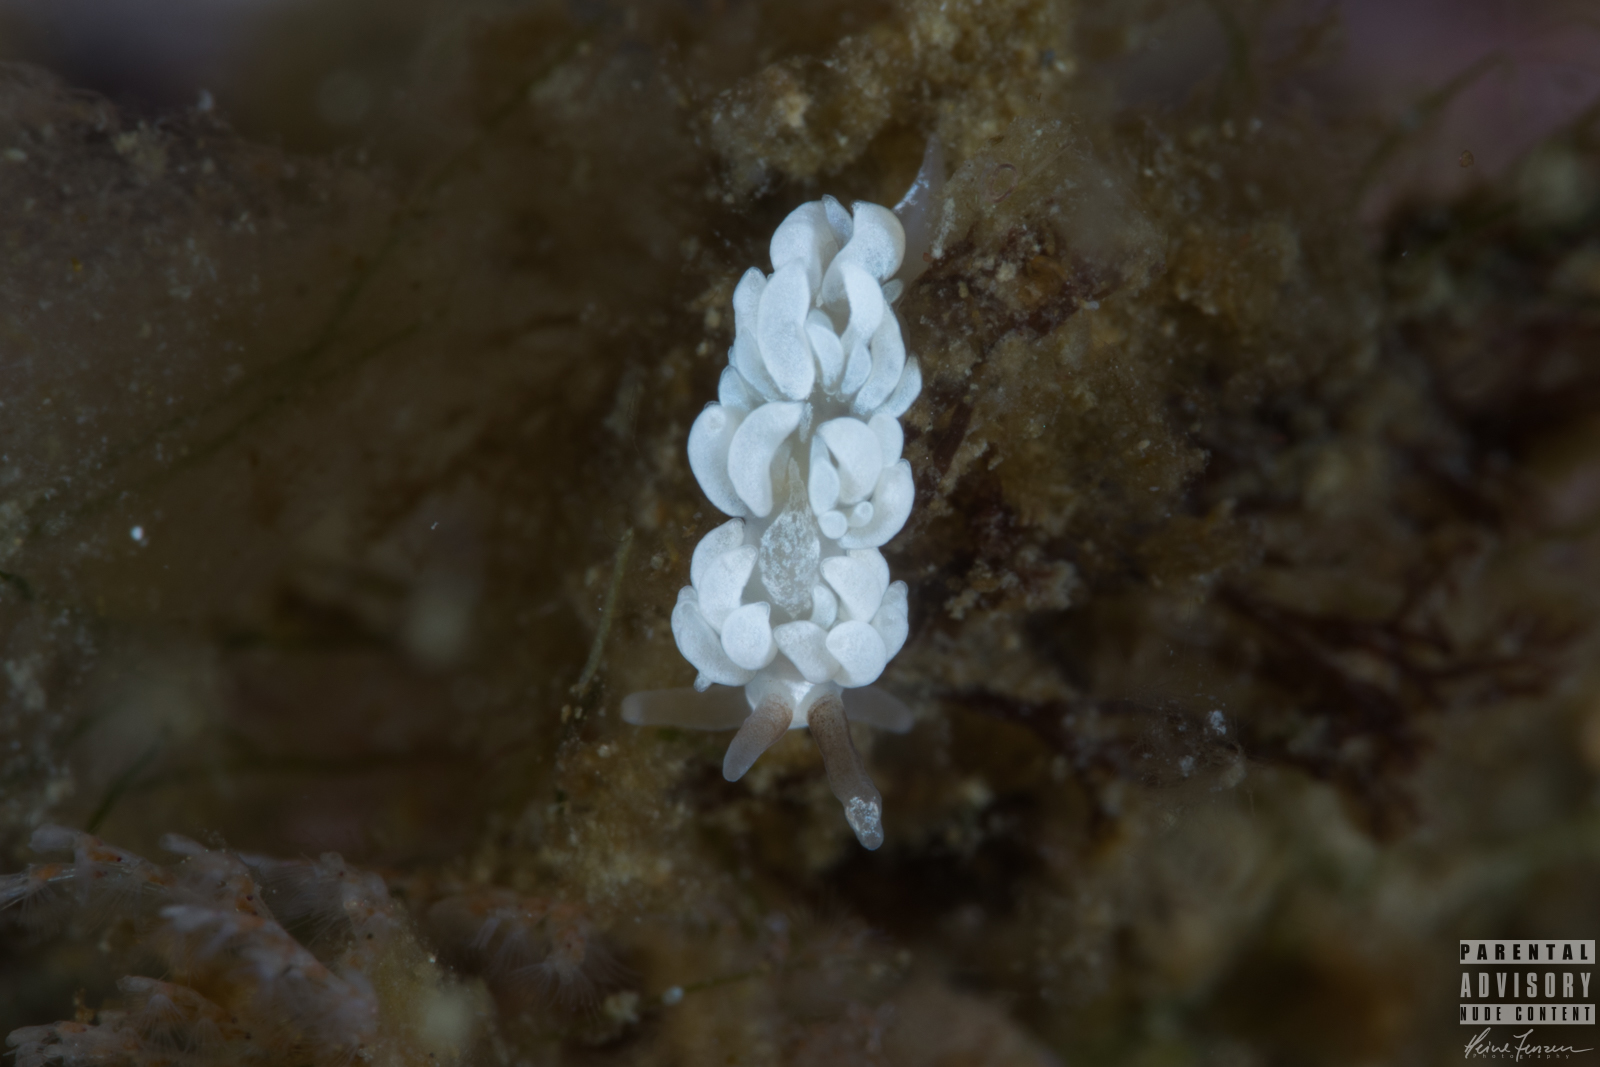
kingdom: Animalia
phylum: Mollusca
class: Gastropoda
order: Nudibranchia
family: Facelinidae
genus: Favorinus
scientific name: Favorinus branchialis
